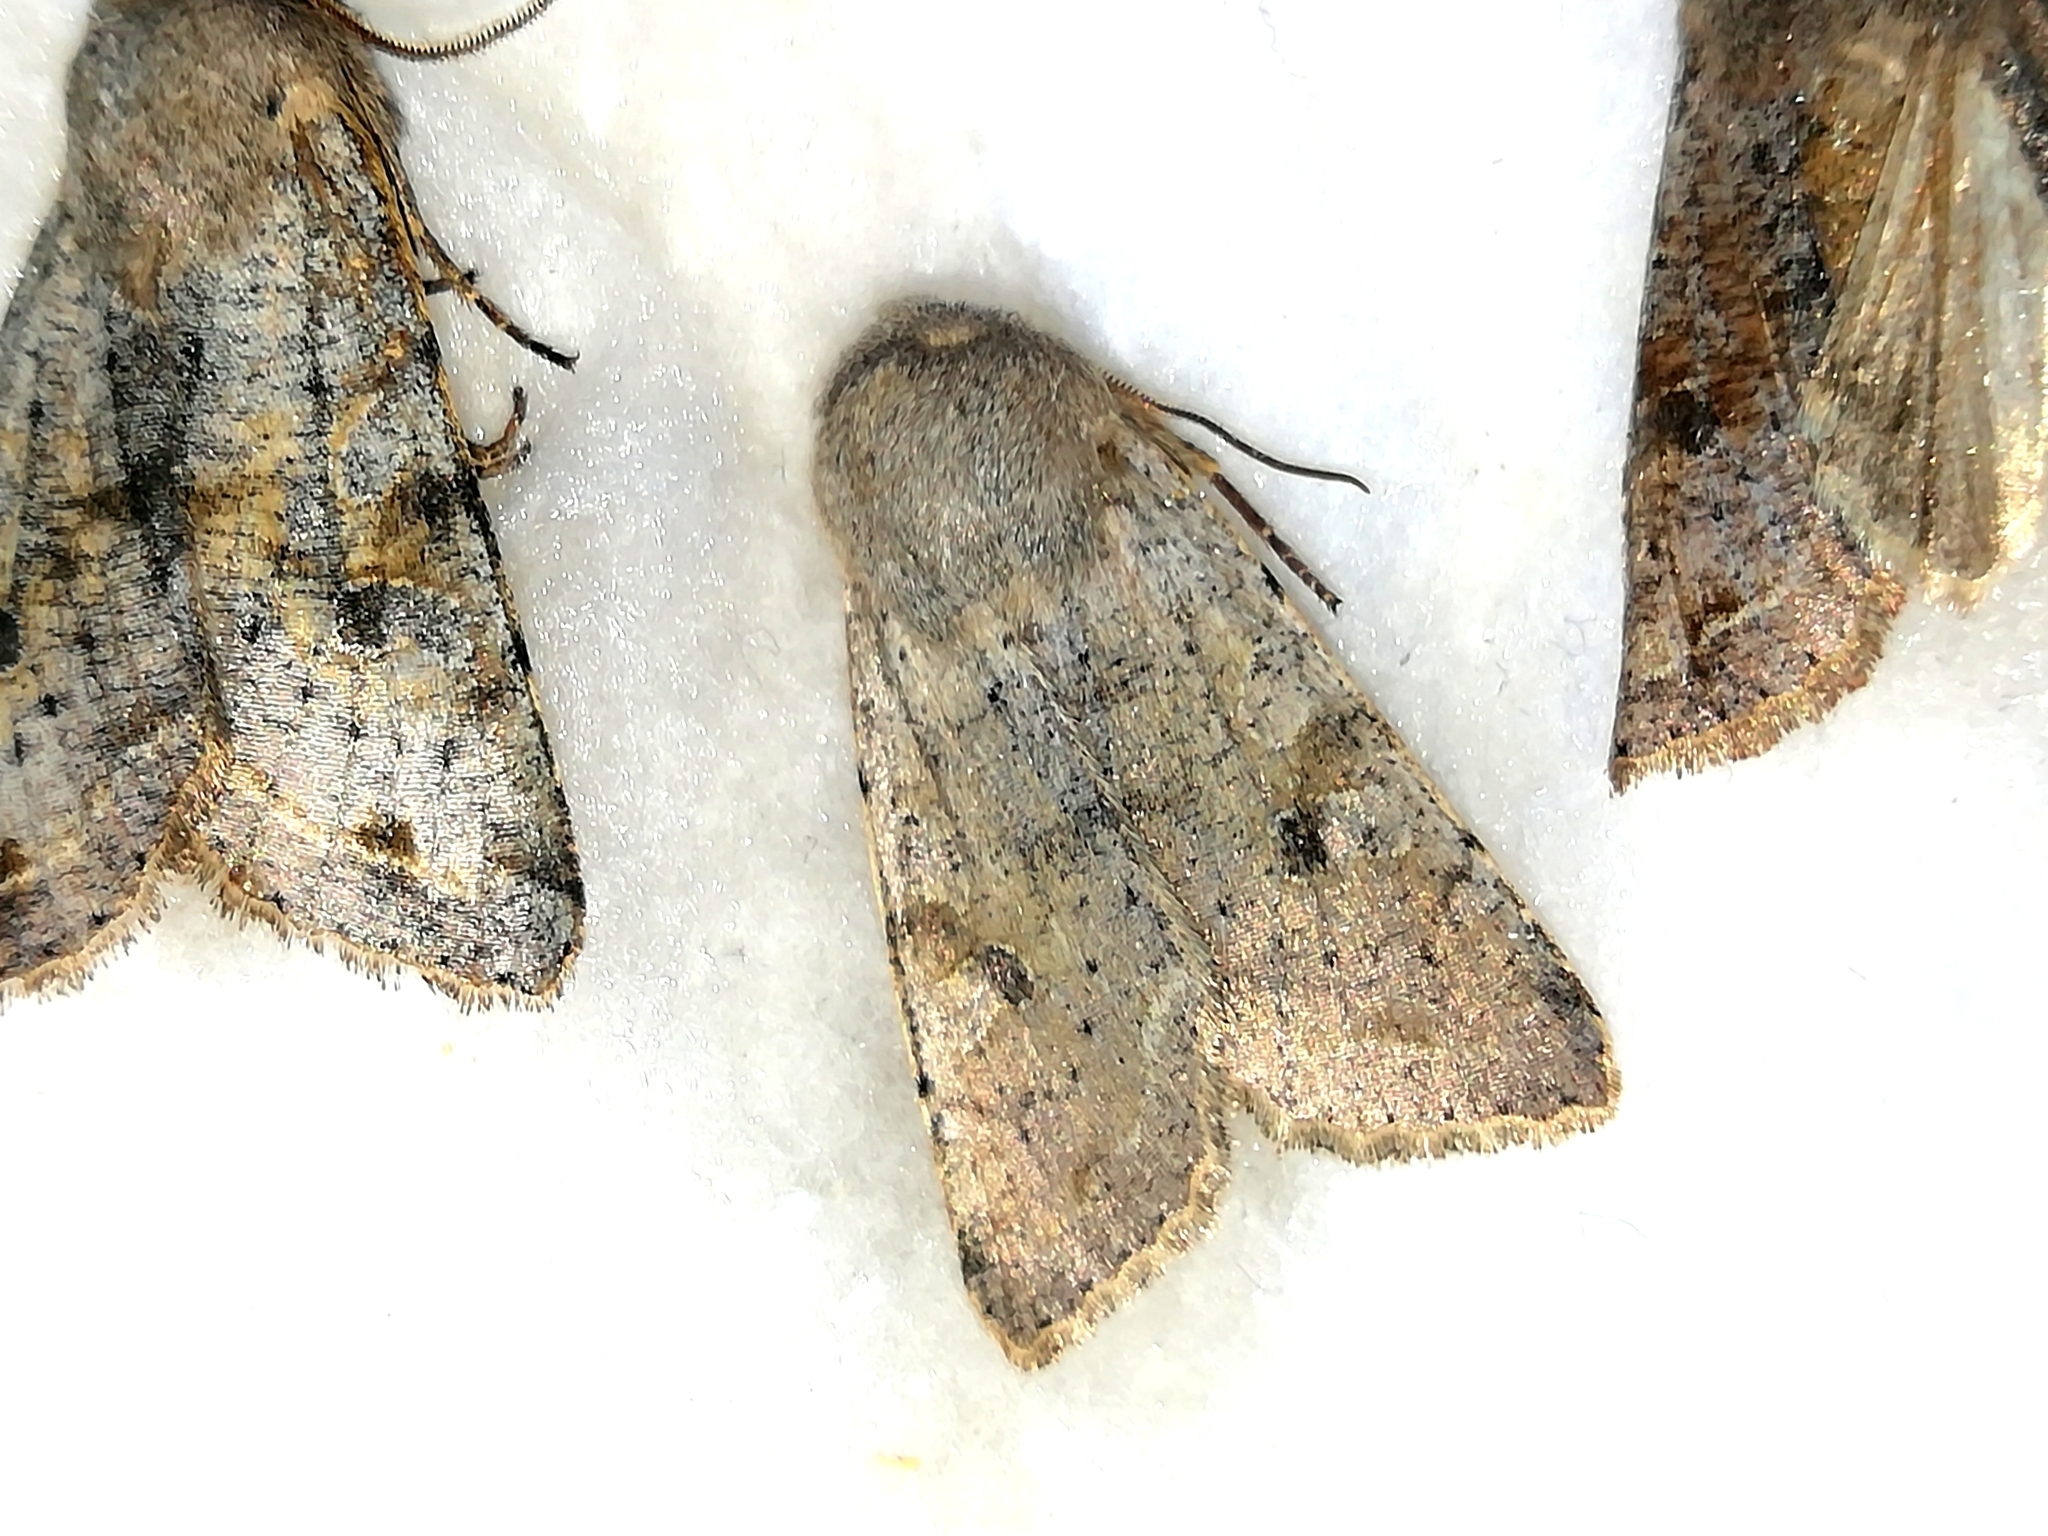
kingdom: Animalia
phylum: Arthropoda
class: Insecta
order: Lepidoptera
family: Noctuidae
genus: Orthosia
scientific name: Orthosia incerta
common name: Clouded drab
